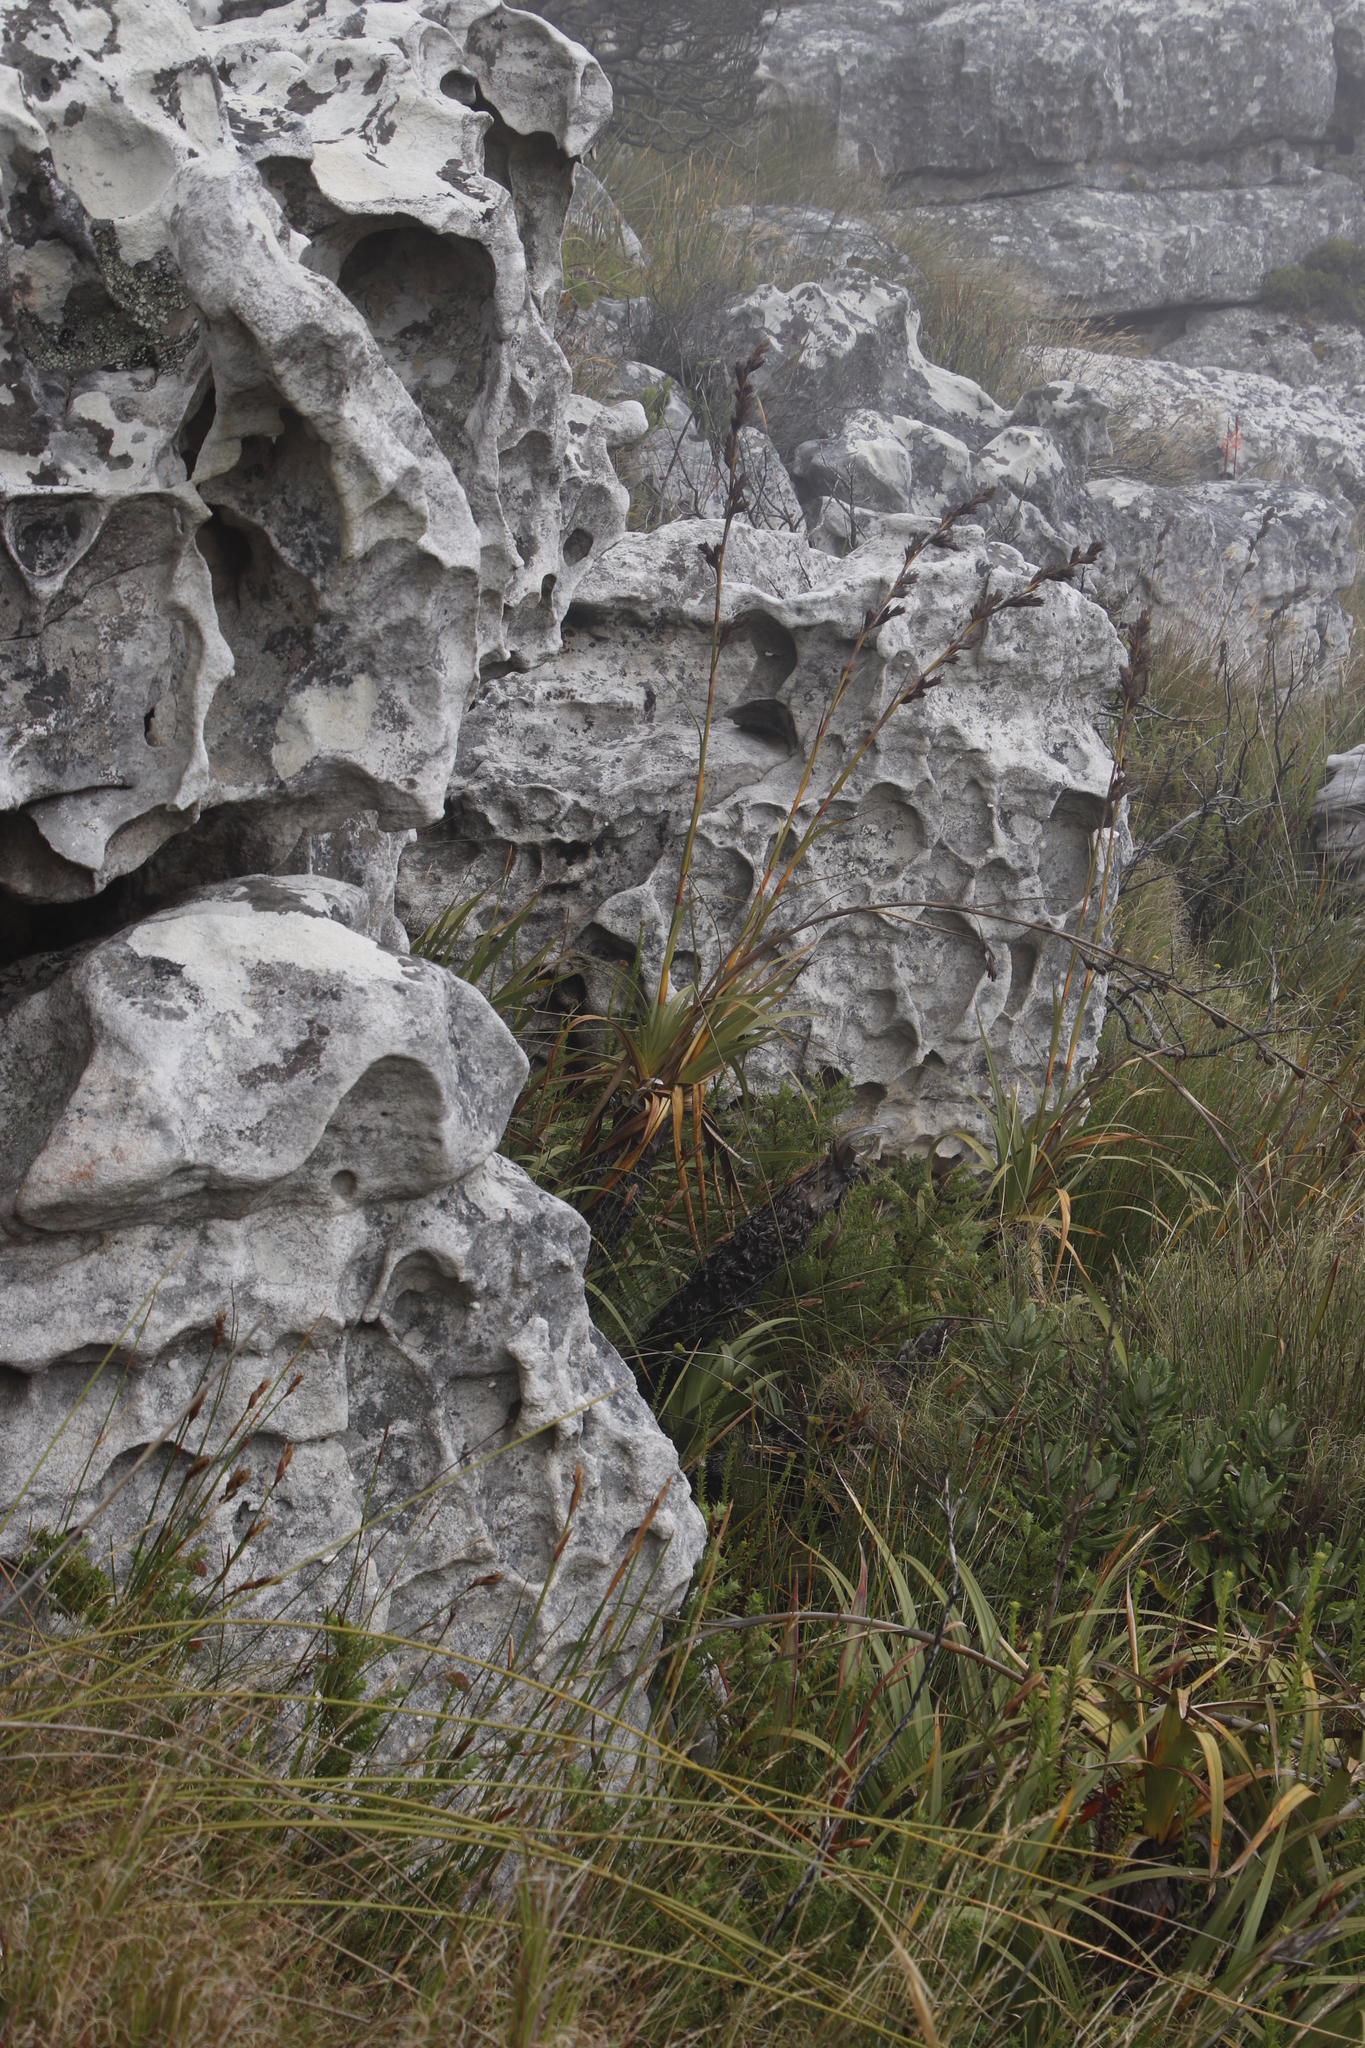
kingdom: Plantae
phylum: Tracheophyta
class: Liliopsida
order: Poales
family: Cyperaceae
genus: Tetraria
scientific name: Tetraria thermalis
